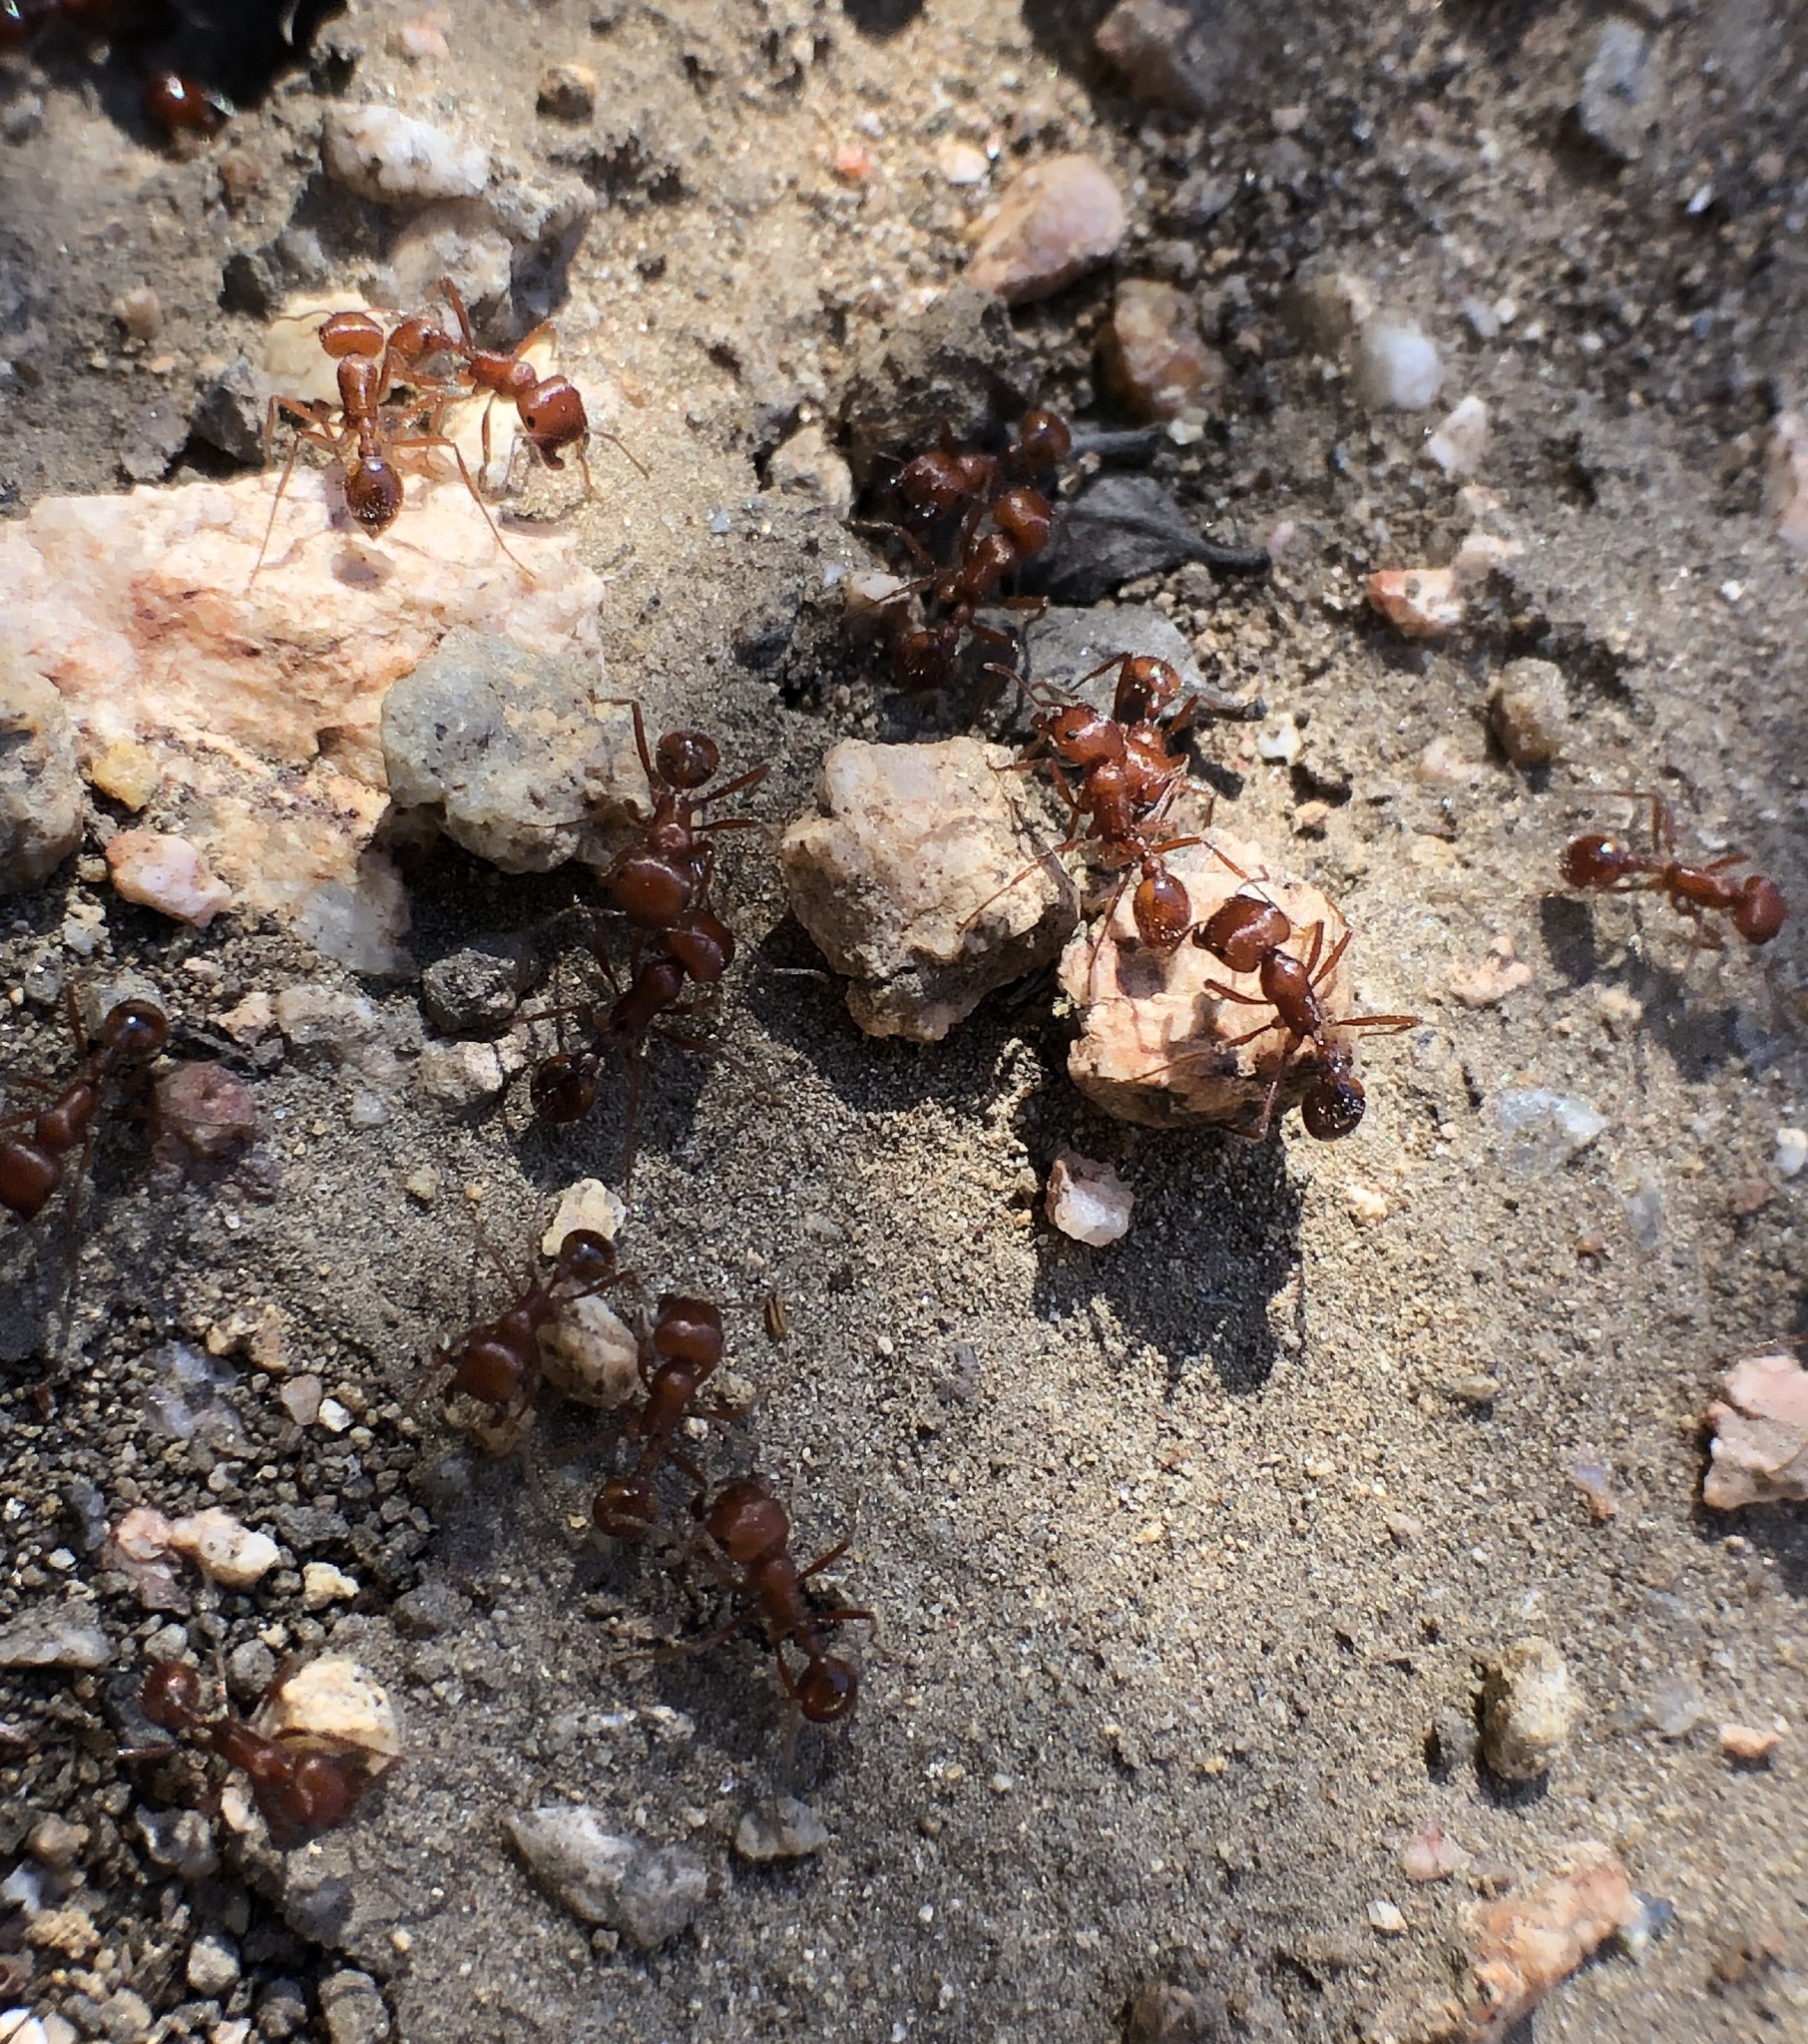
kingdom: Animalia
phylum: Arthropoda
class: Insecta
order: Hymenoptera
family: Formicidae
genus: Pogonomyrmex
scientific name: Pogonomyrmex subnitidus
